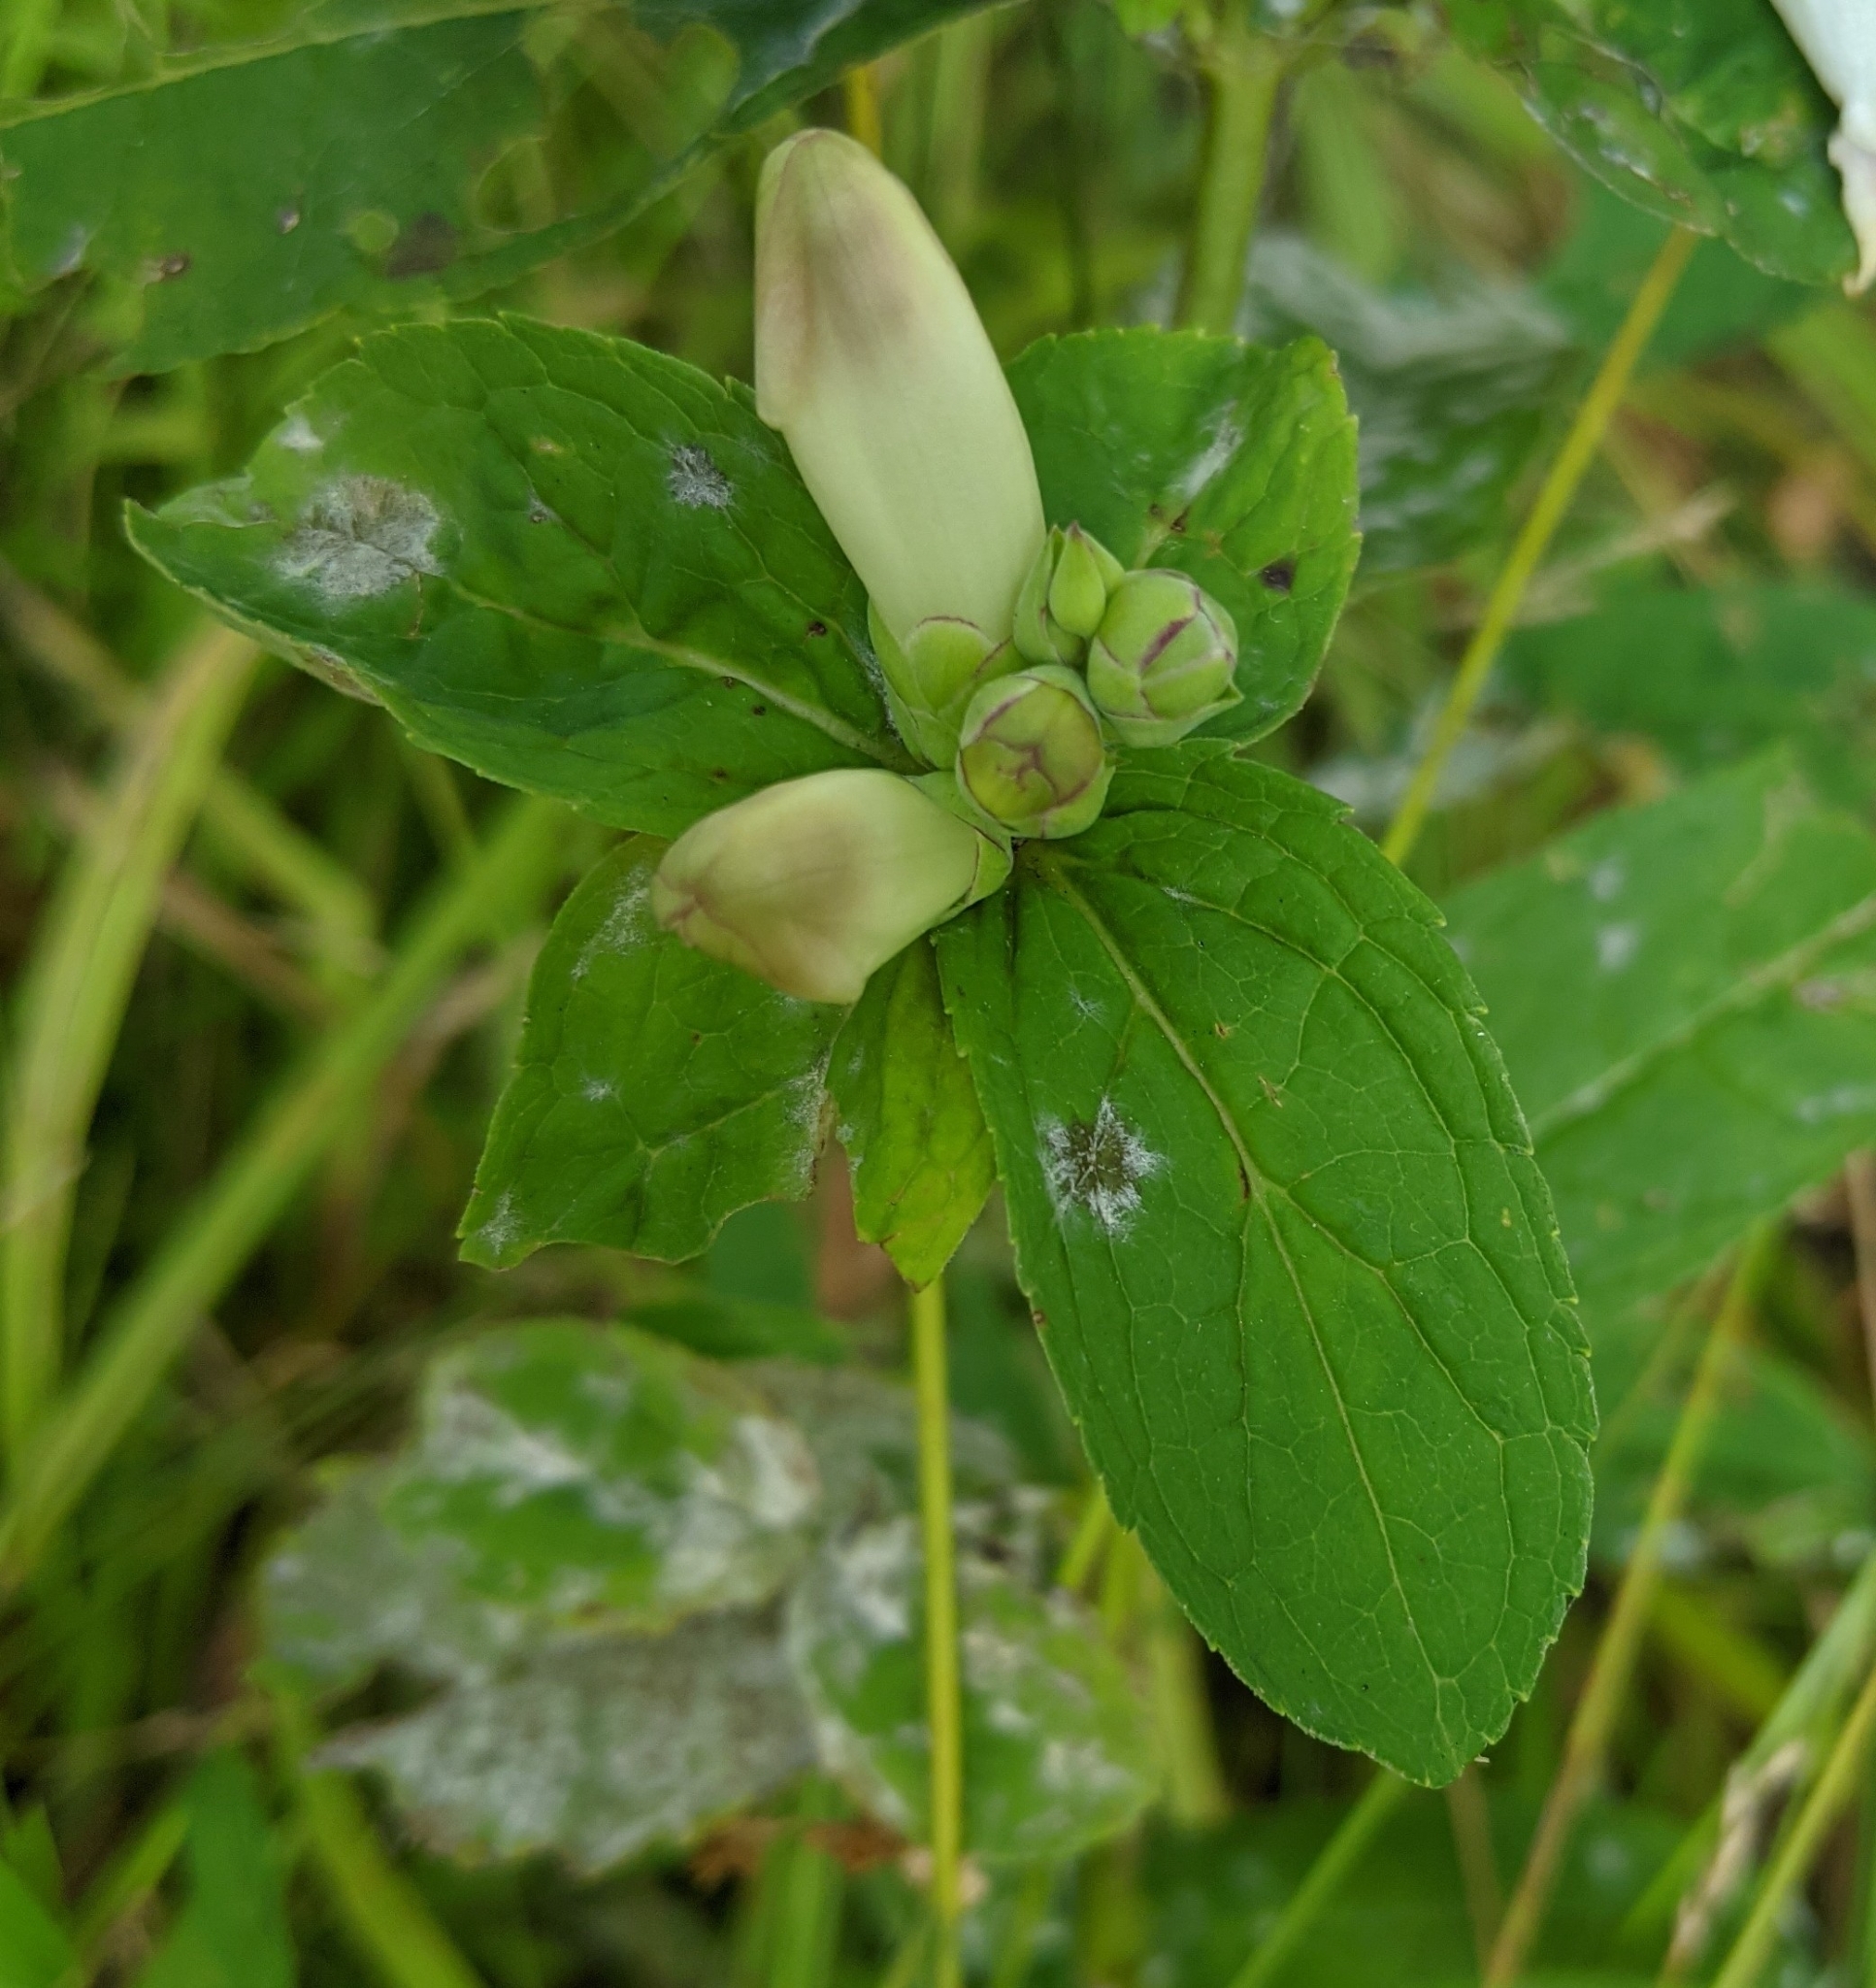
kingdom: Plantae
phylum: Tracheophyta
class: Magnoliopsida
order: Lamiales
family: Plantaginaceae
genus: Chelone
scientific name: Chelone glabra
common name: Snakehead
